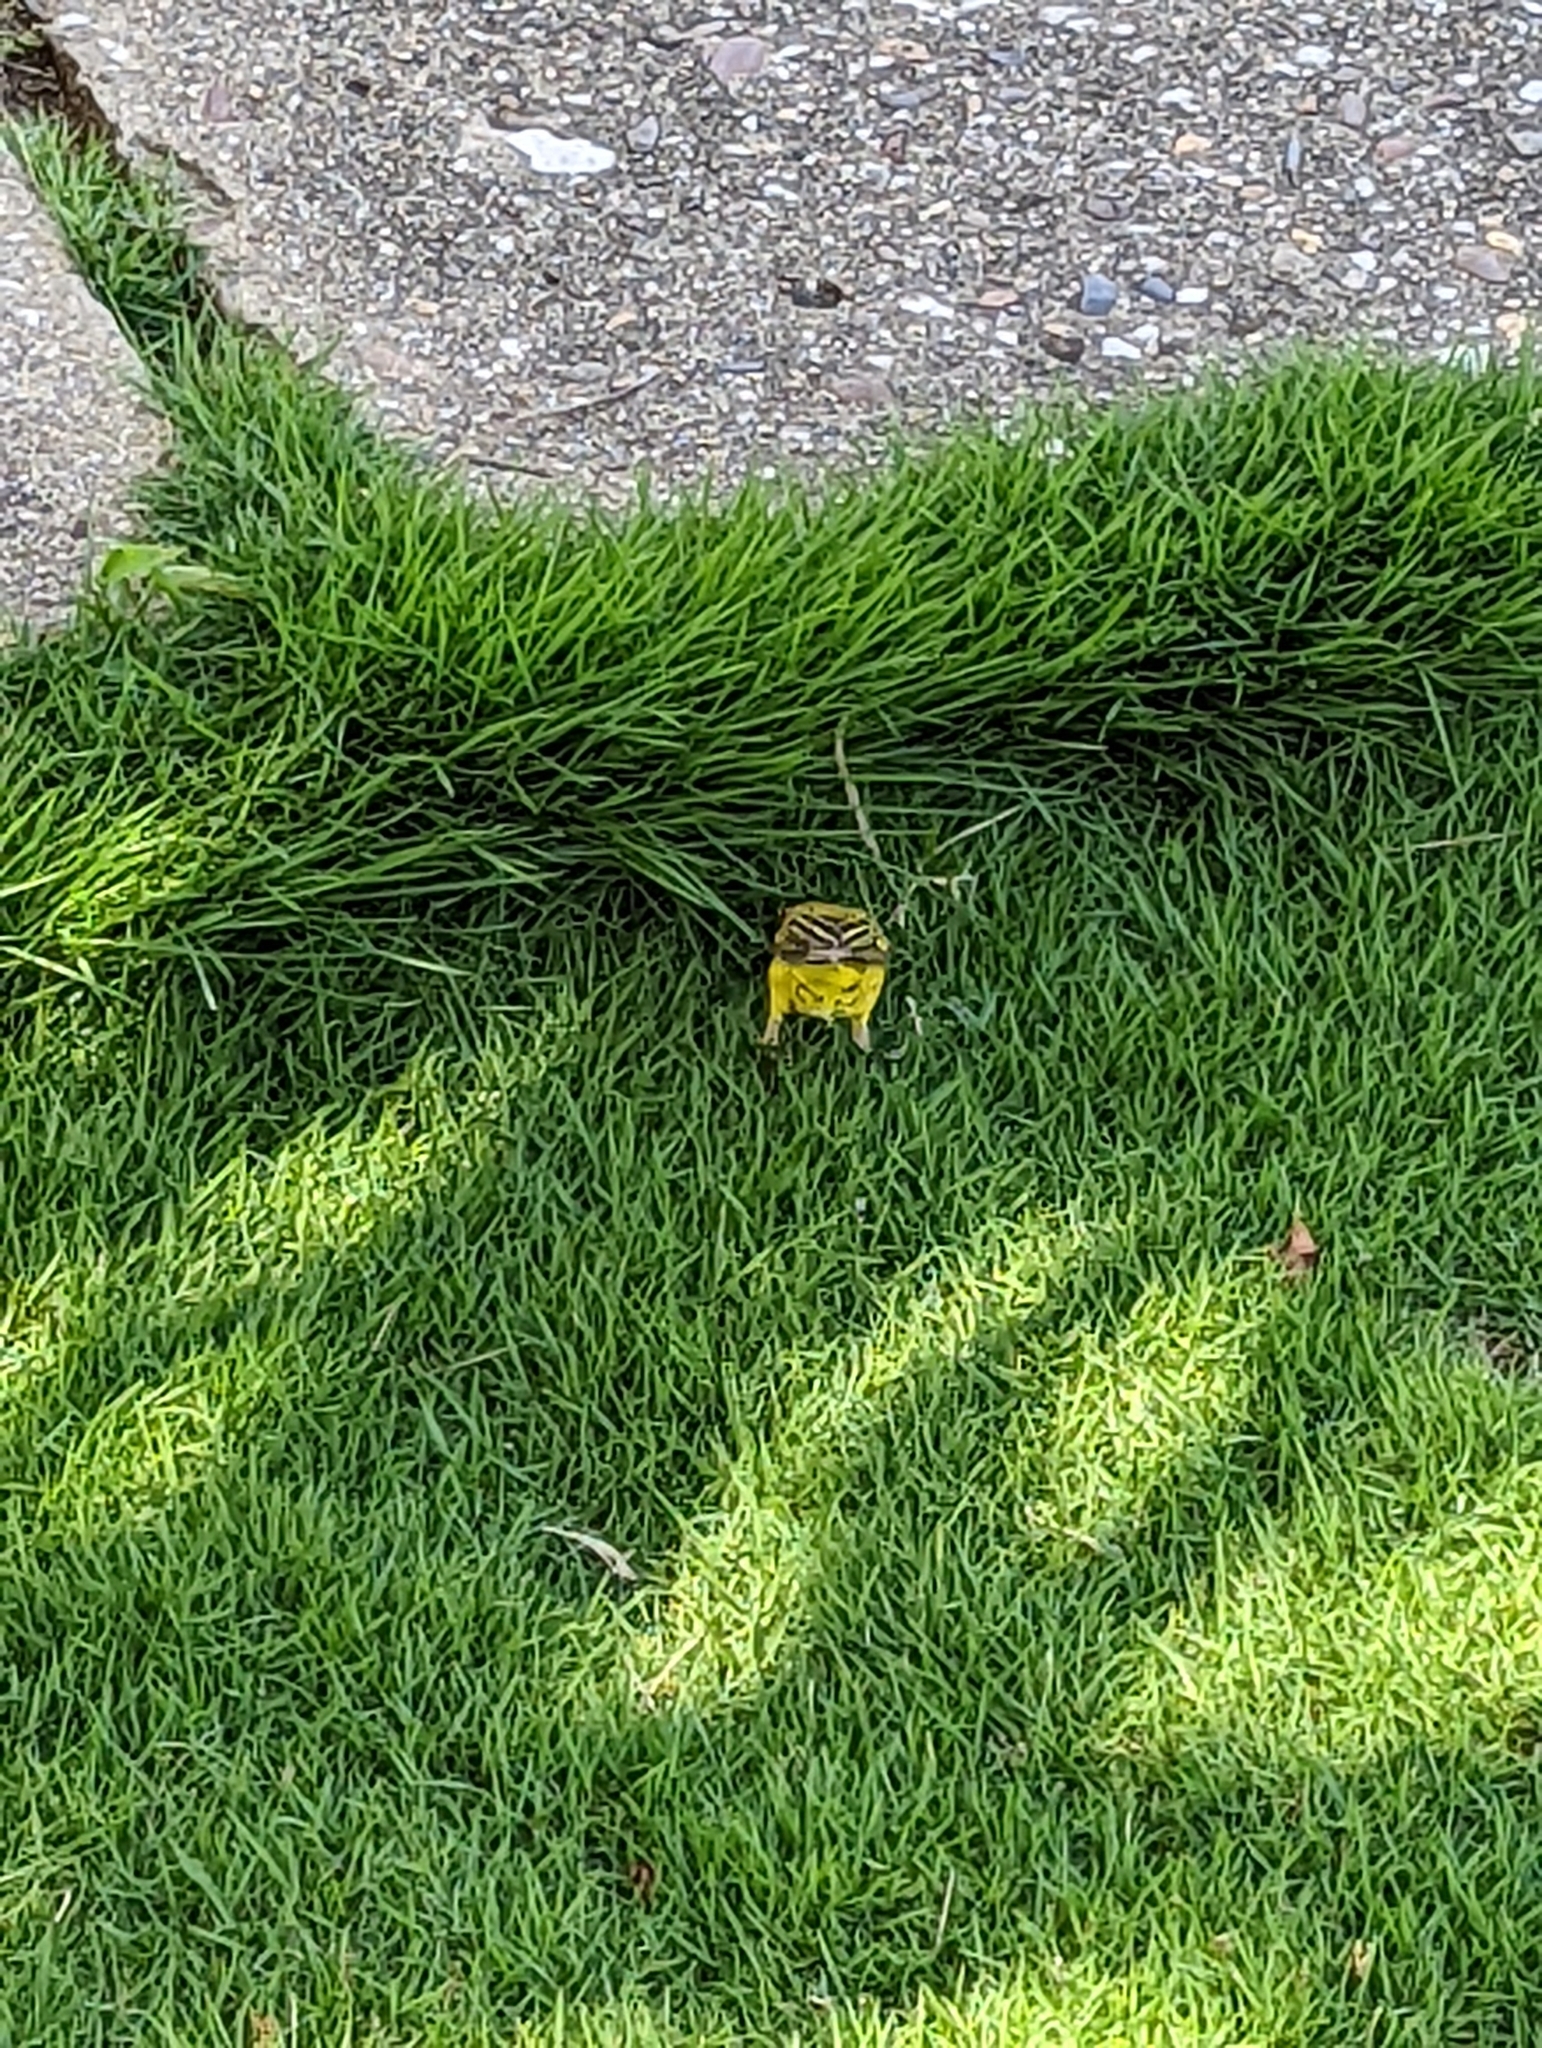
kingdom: Animalia
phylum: Chordata
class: Aves
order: Passeriformes
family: Parulidae
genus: Setophaga
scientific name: Setophaga petechia
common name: Yellow warbler
